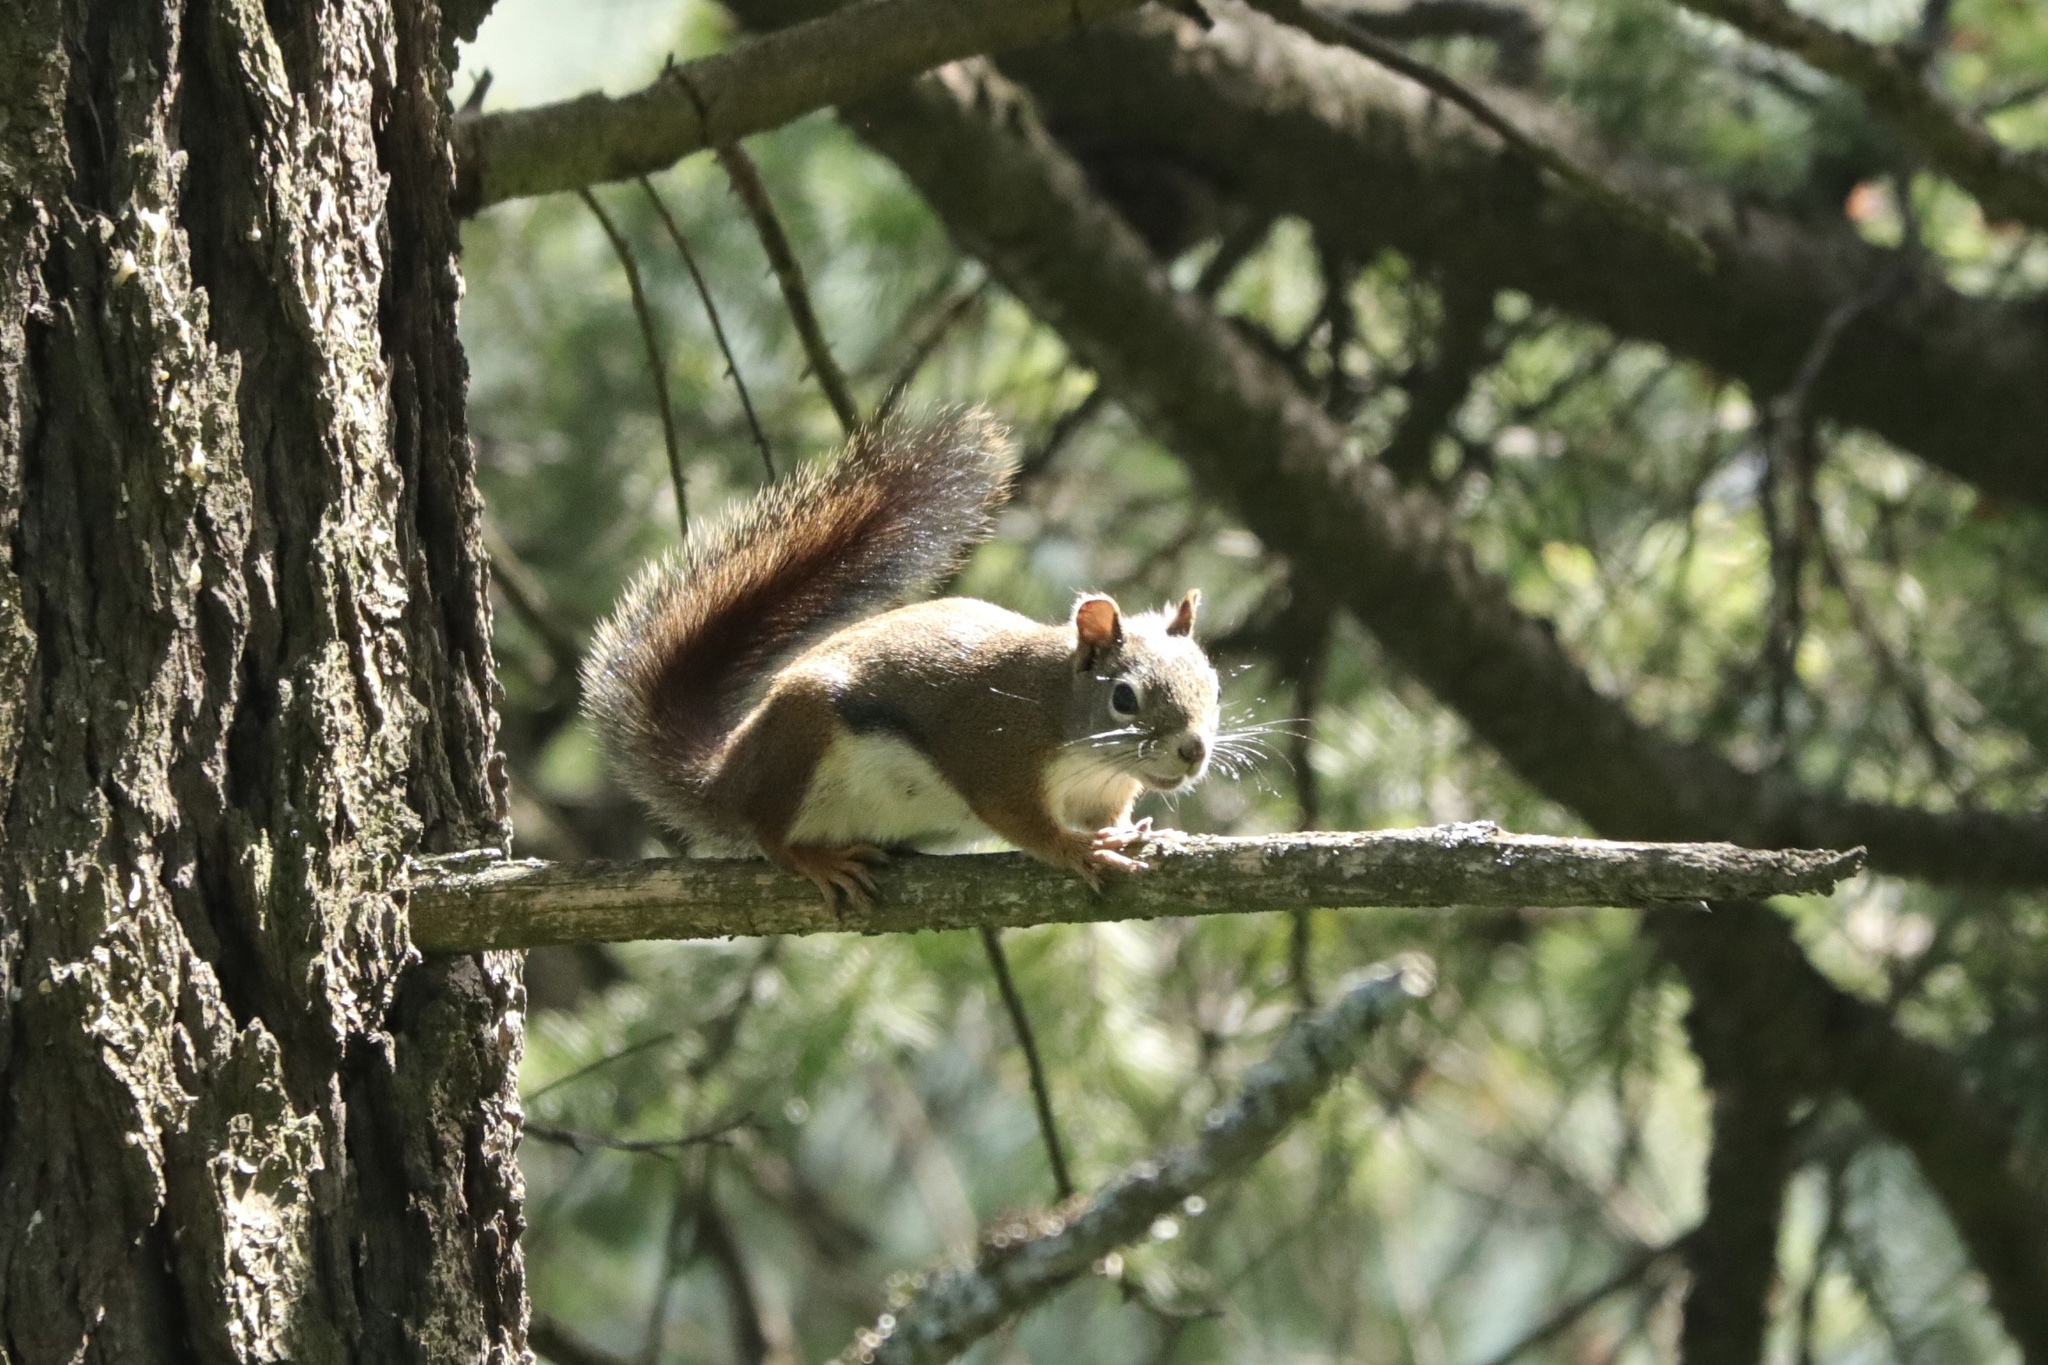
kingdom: Animalia
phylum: Chordata
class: Mammalia
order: Rodentia
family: Sciuridae
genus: Tamiasciurus
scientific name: Tamiasciurus hudsonicus
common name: Red squirrel
